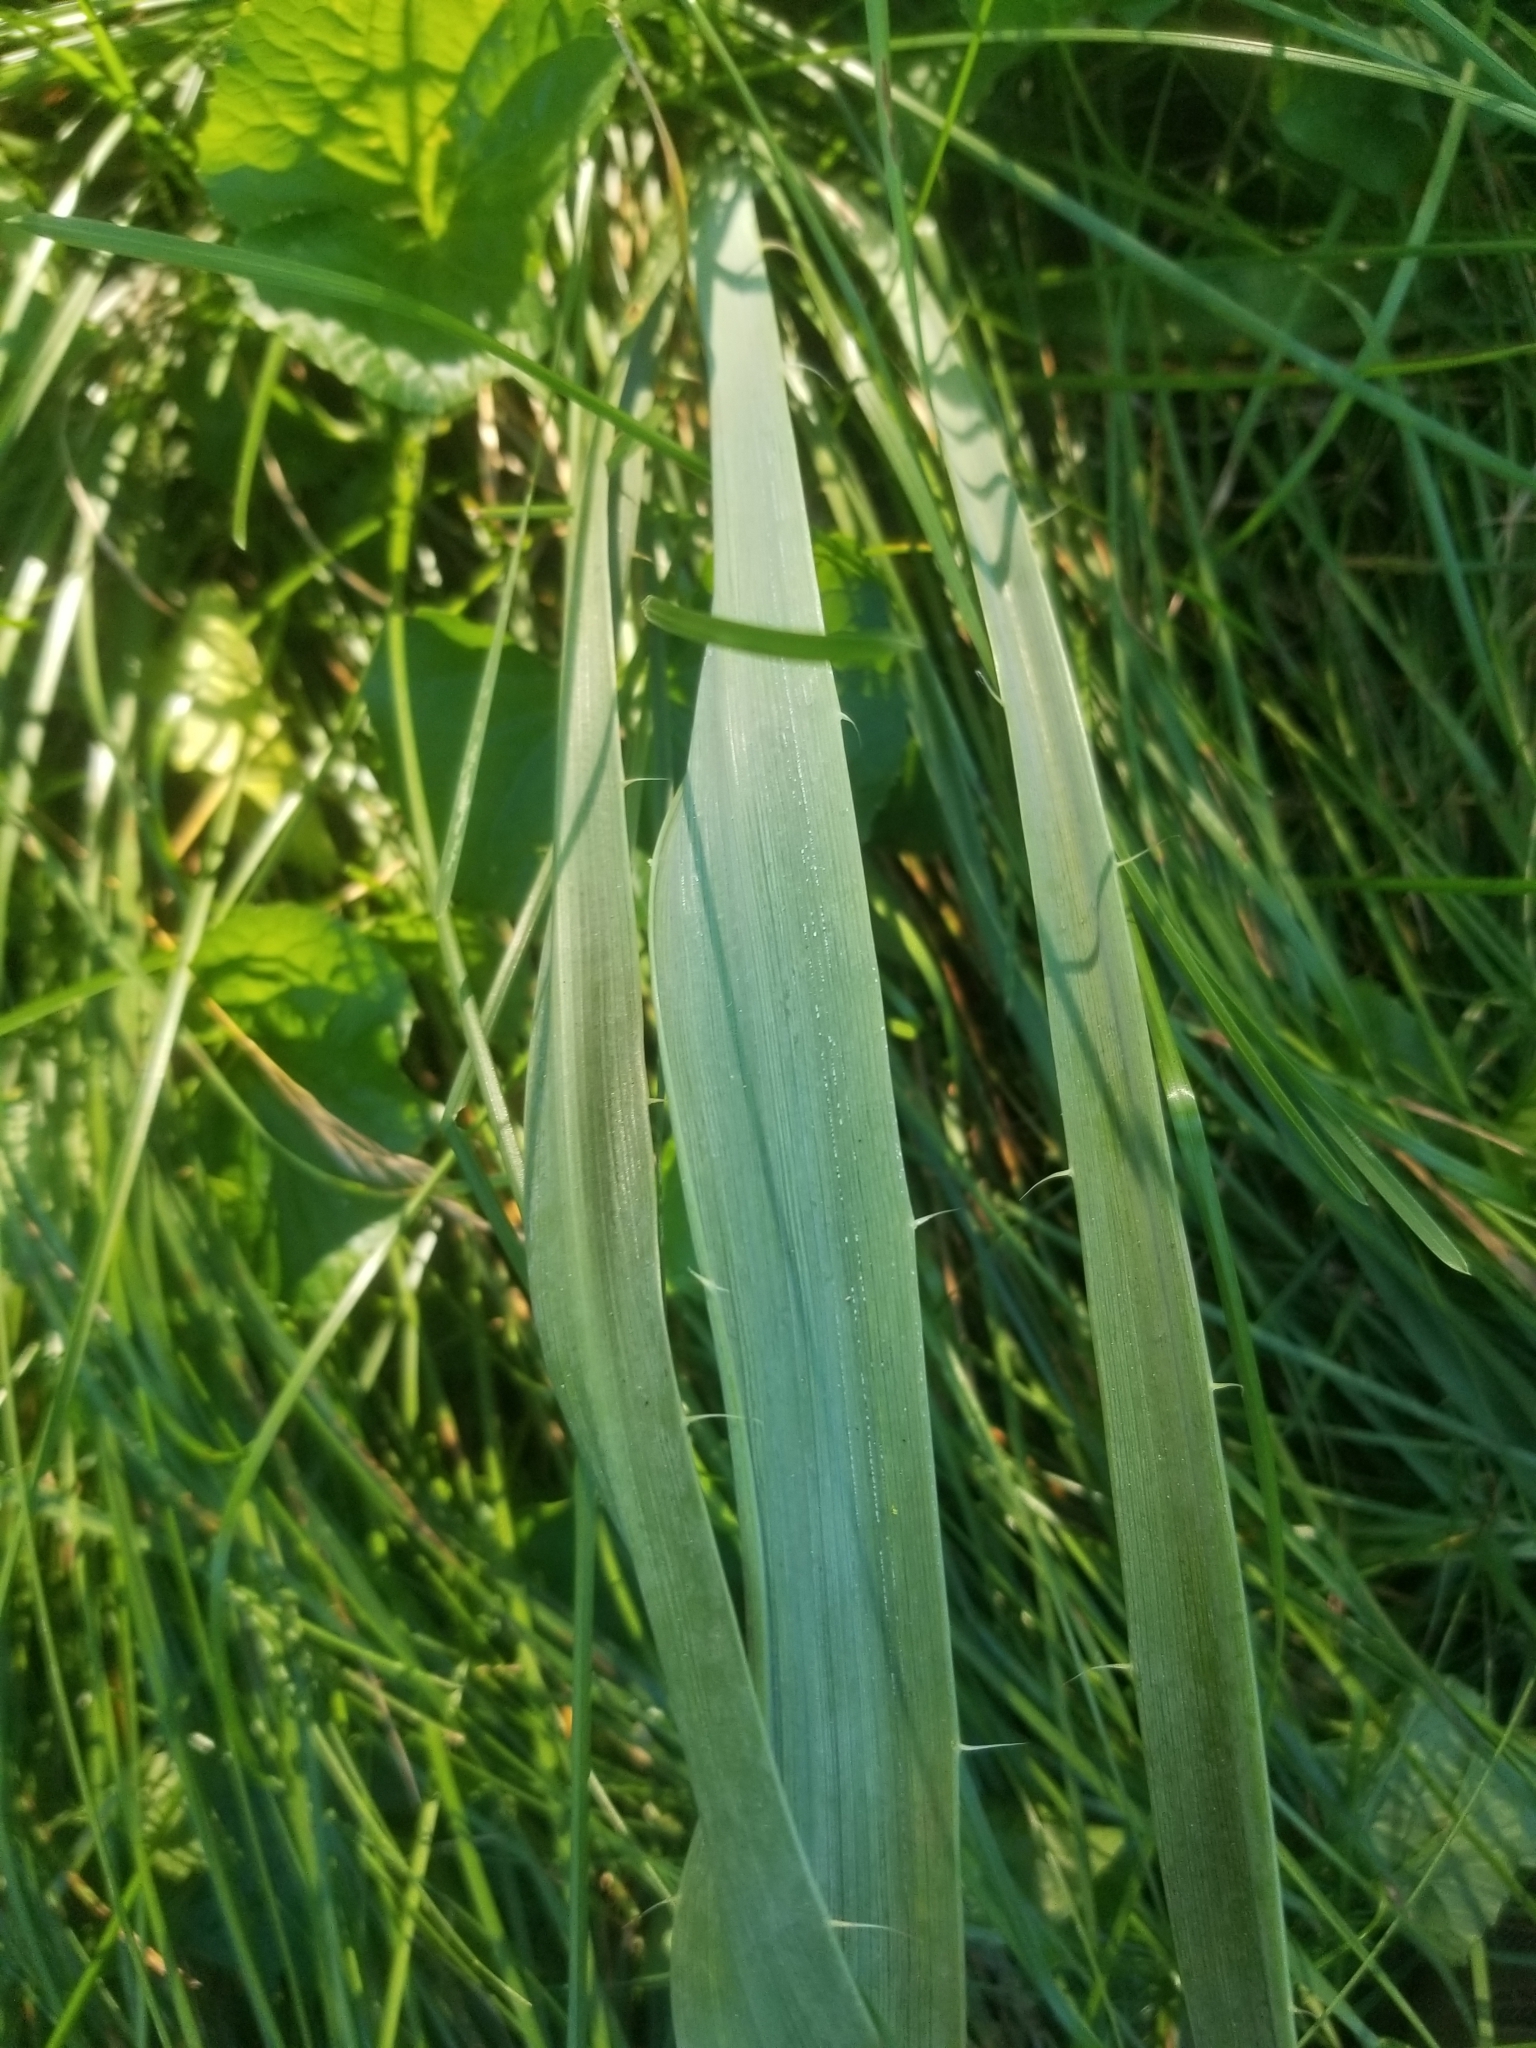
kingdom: Plantae
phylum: Tracheophyta
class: Magnoliopsida
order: Apiales
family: Apiaceae
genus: Eryngium
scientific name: Eryngium yuccifolium
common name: Button eryngo
